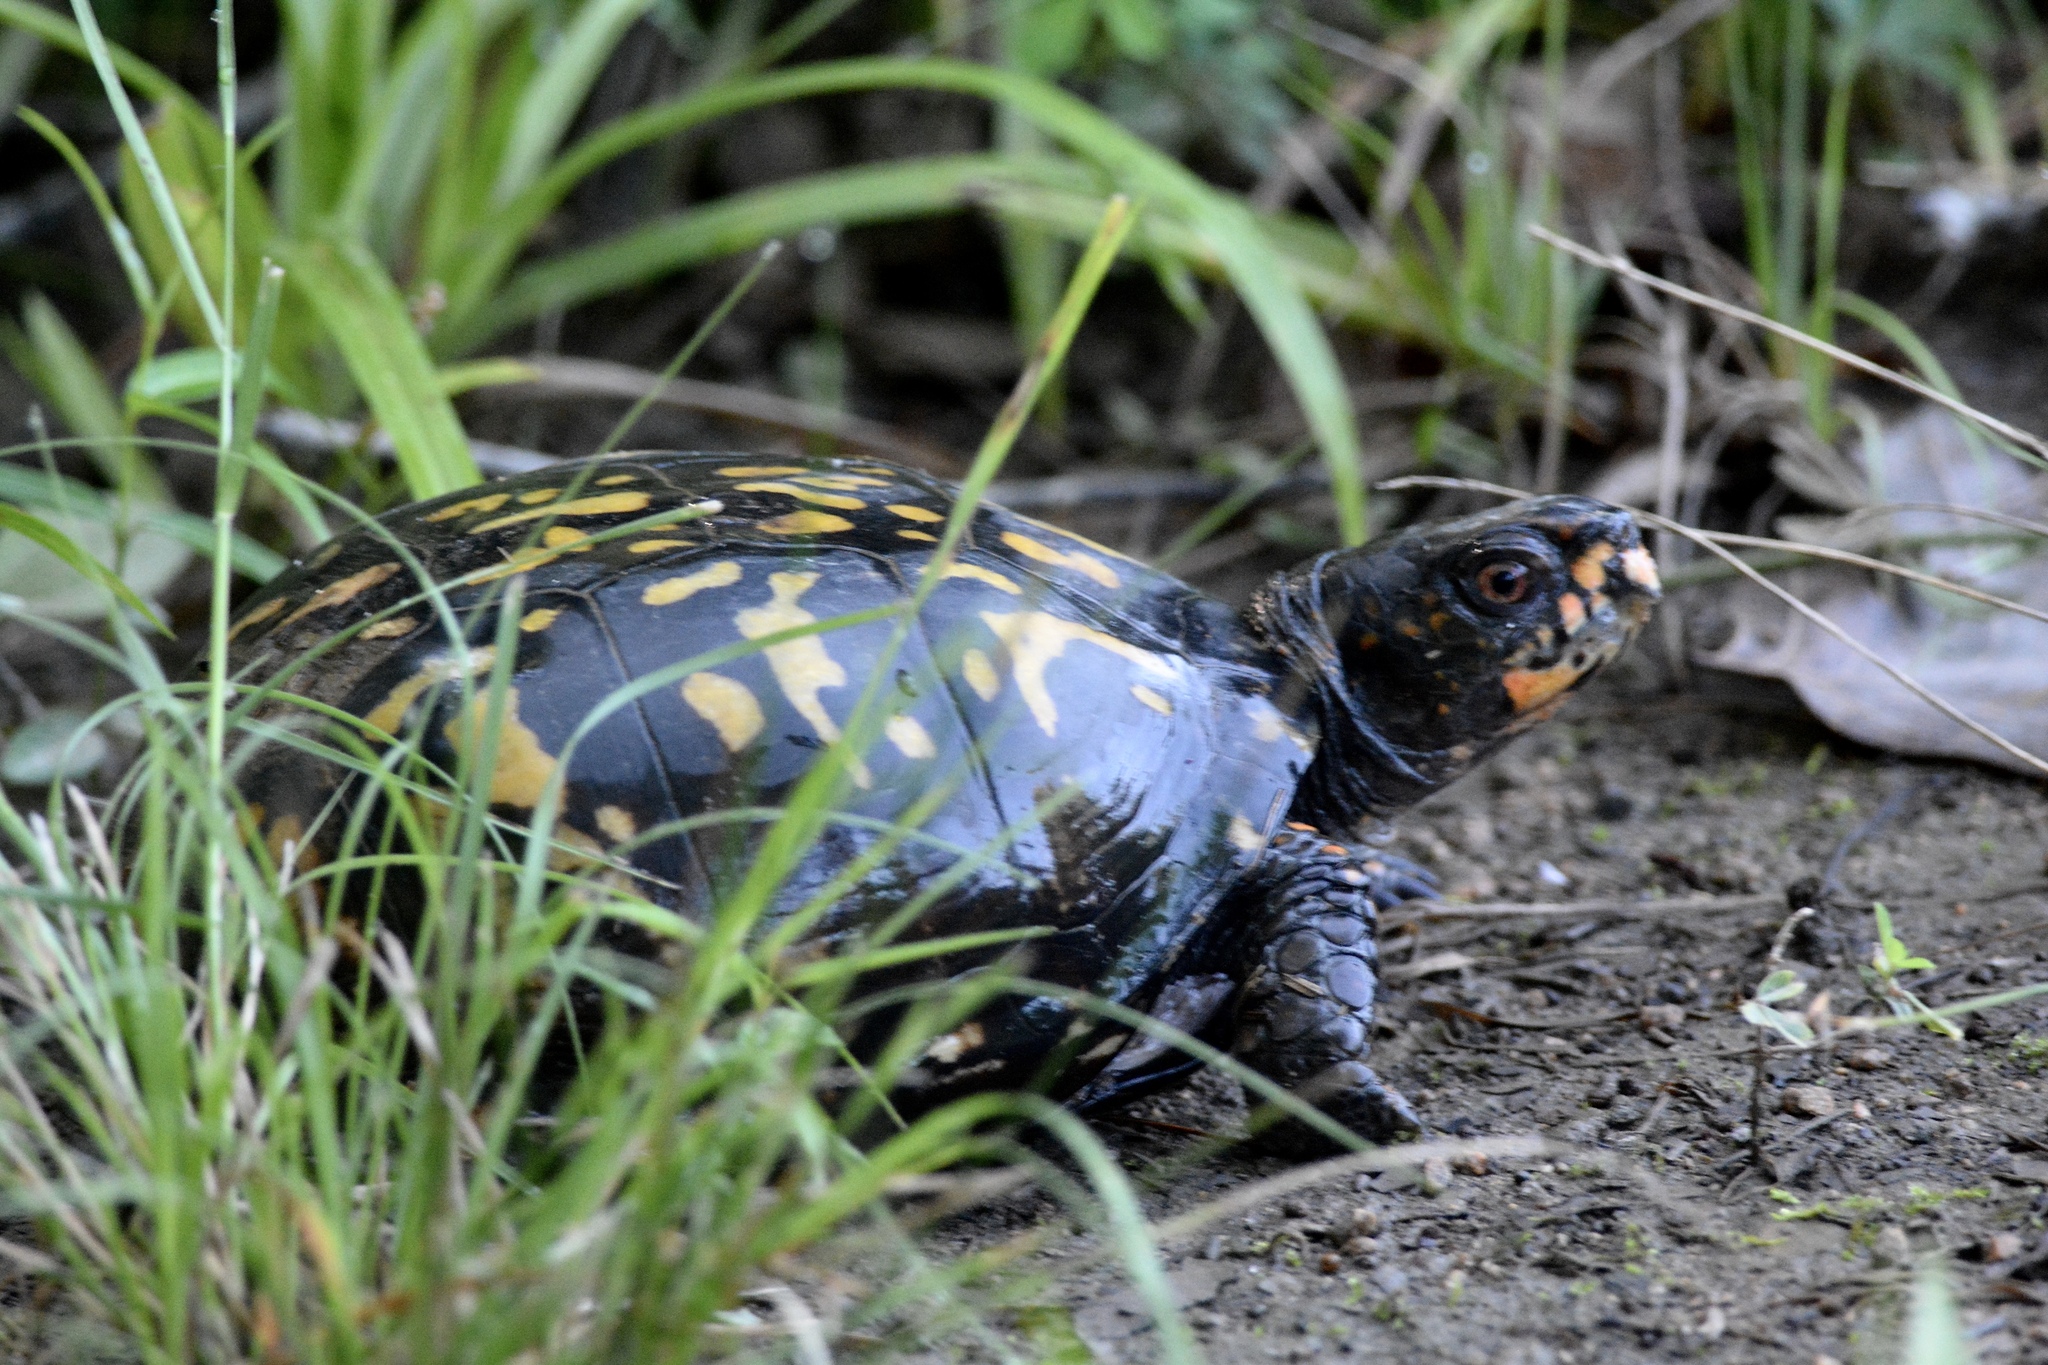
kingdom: Animalia
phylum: Chordata
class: Testudines
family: Emydidae
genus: Terrapene
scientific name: Terrapene carolina
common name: Common box turtle
